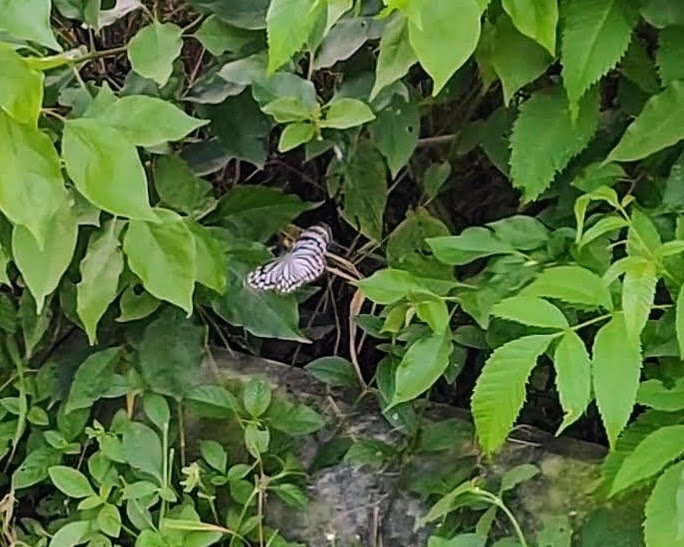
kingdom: Animalia
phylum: Arthropoda
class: Insecta
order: Lepidoptera
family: Pieridae
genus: Pareronia
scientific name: Pareronia hippia
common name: Indian wanderer
